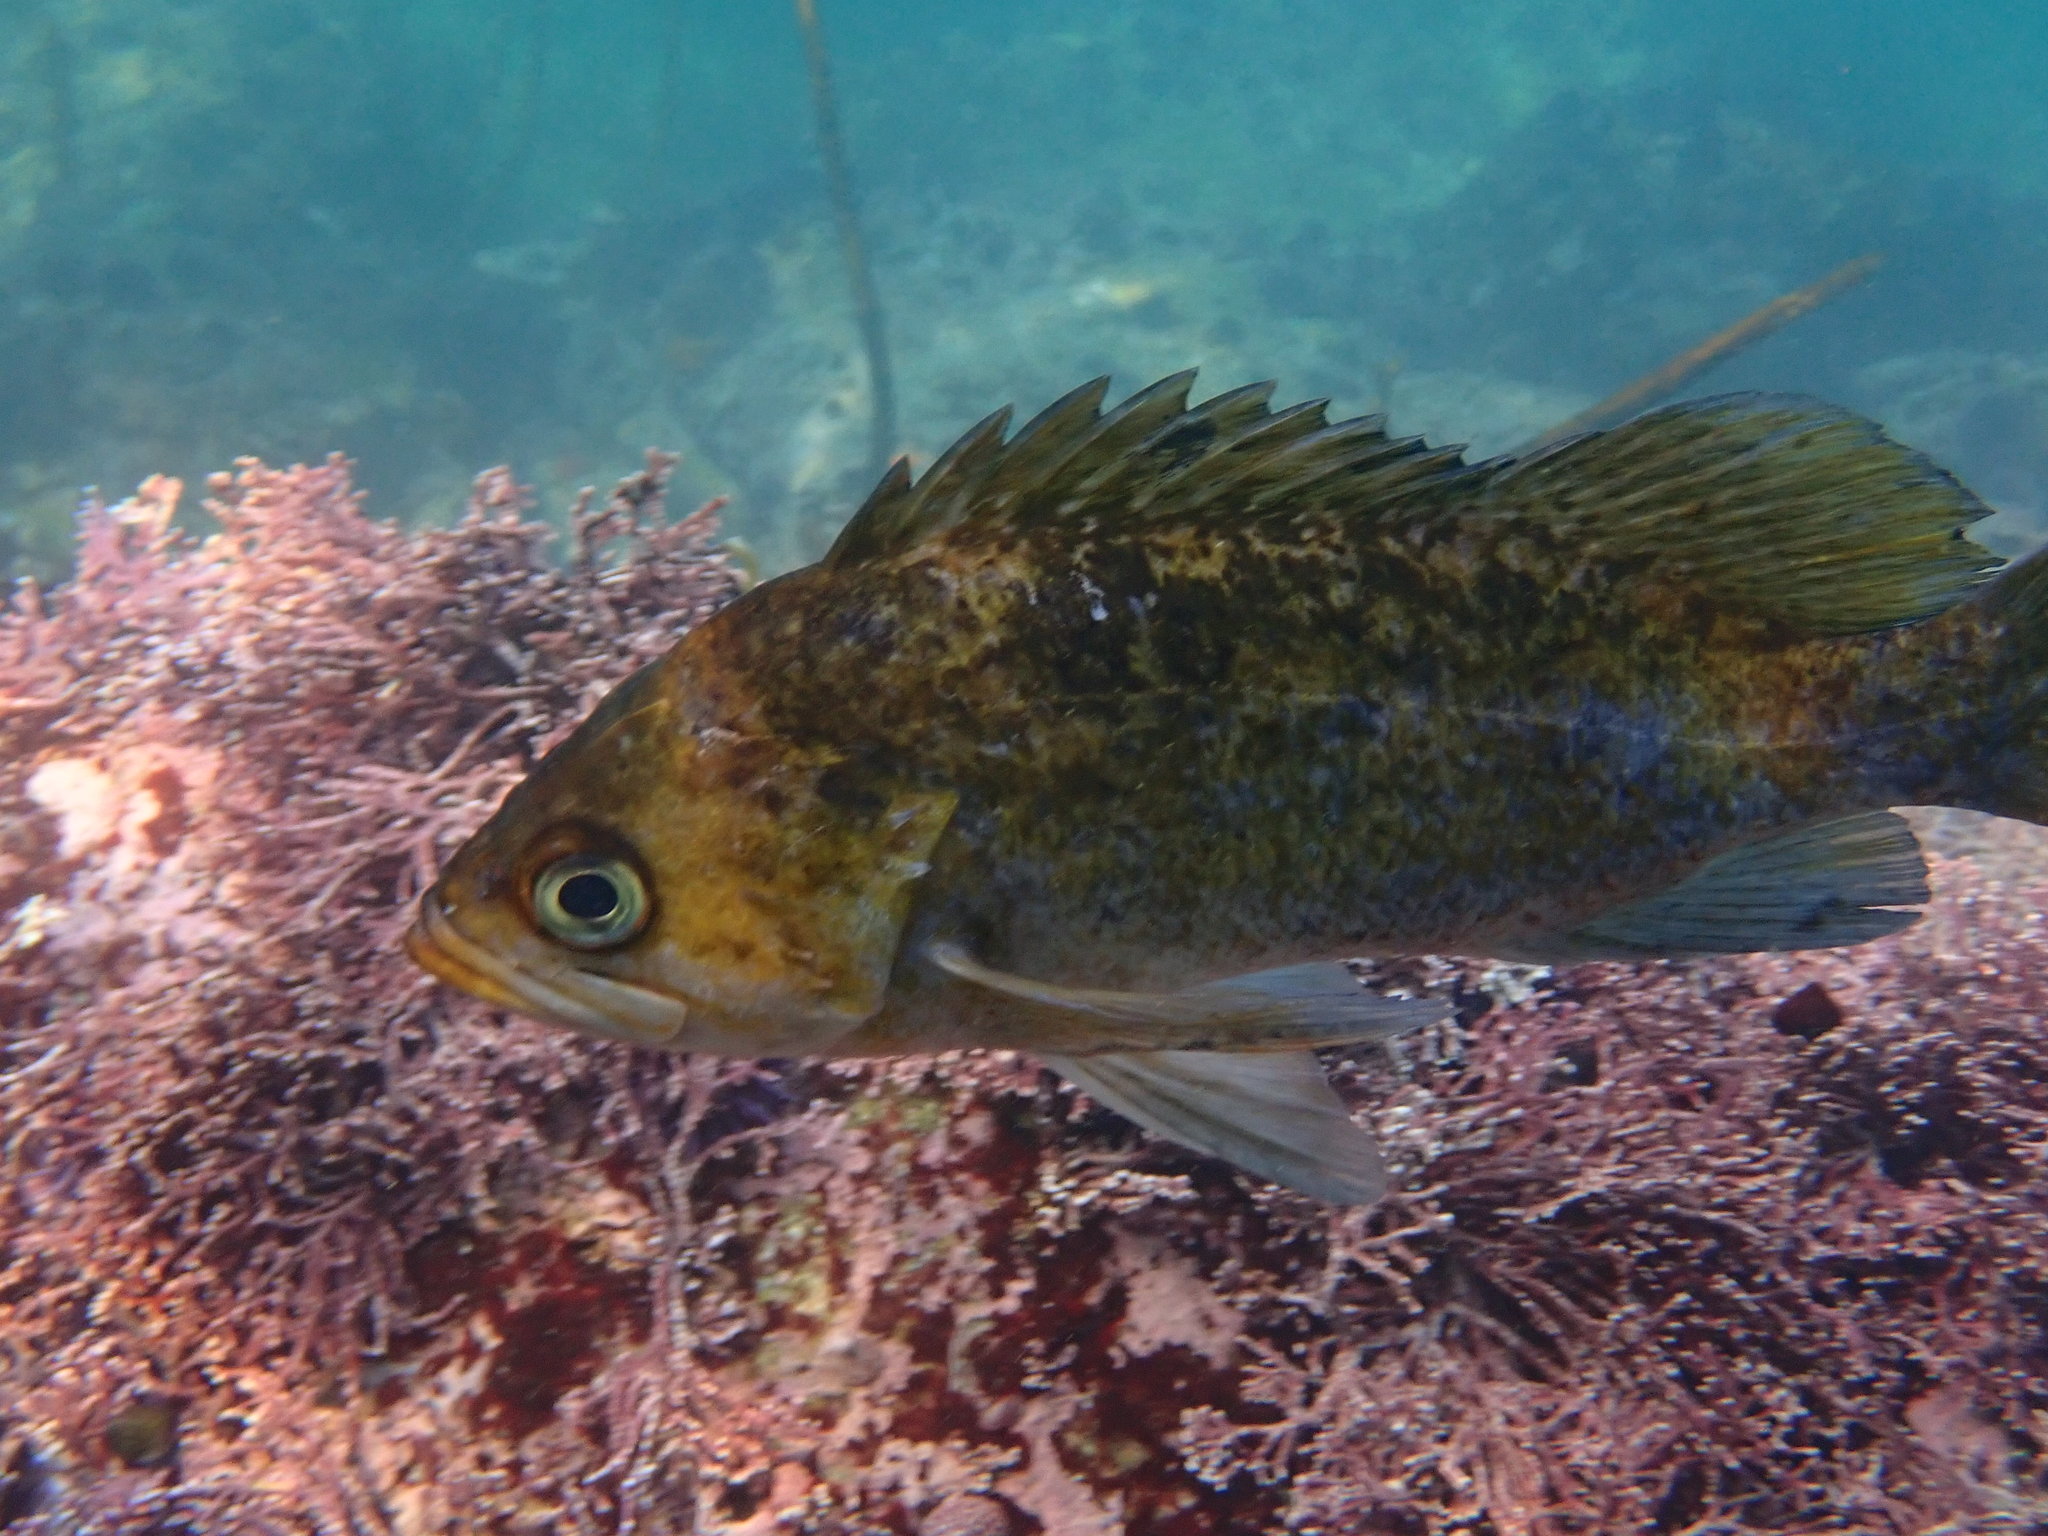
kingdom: Animalia
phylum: Chordata
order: Scorpaeniformes
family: Sebastidae
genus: Sebastes
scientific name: Sebastes atrovirens
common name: Kelp rockfish
